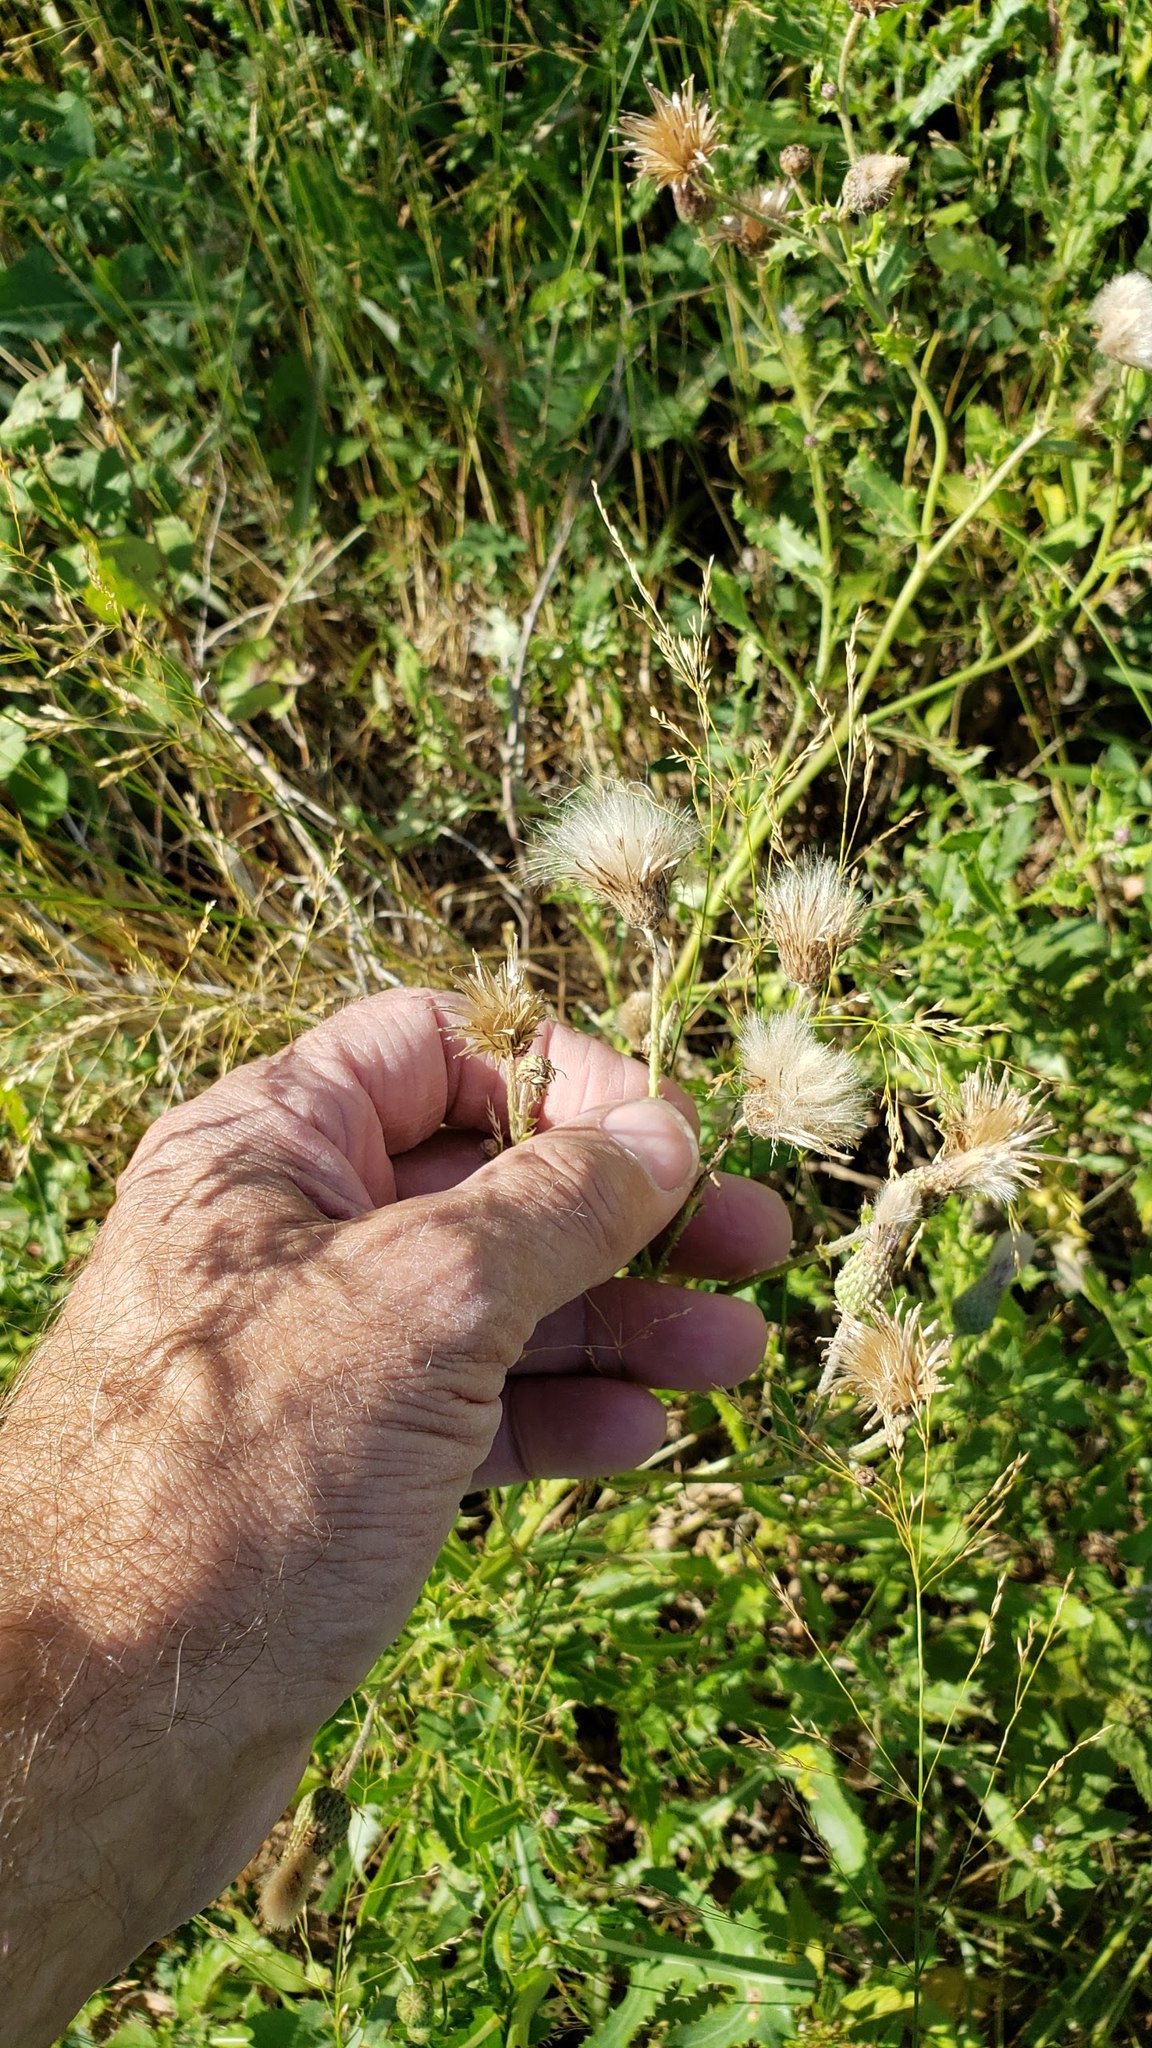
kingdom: Plantae
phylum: Tracheophyta
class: Magnoliopsida
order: Asterales
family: Asteraceae
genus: Cirsium
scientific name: Cirsium arvense
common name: Creeping thistle
